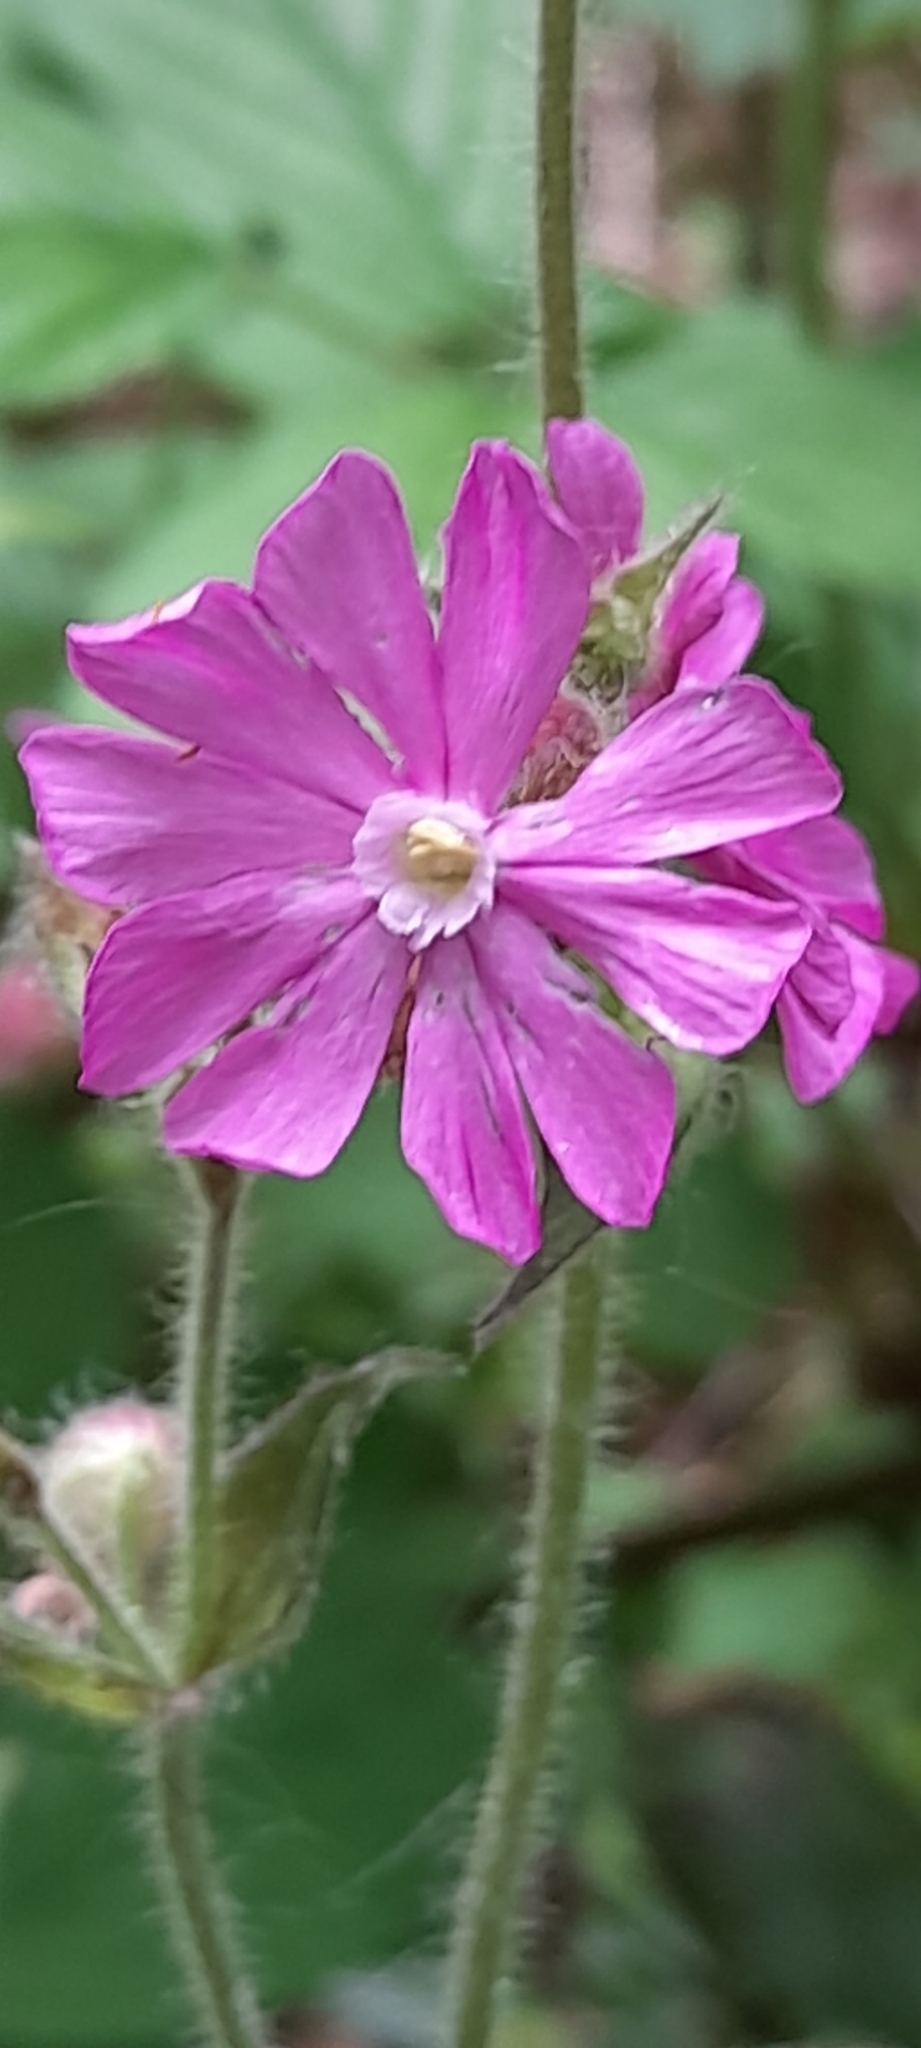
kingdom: Plantae
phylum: Tracheophyta
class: Magnoliopsida
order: Caryophyllales
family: Caryophyllaceae
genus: Silene
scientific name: Silene dioica
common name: Red campion
